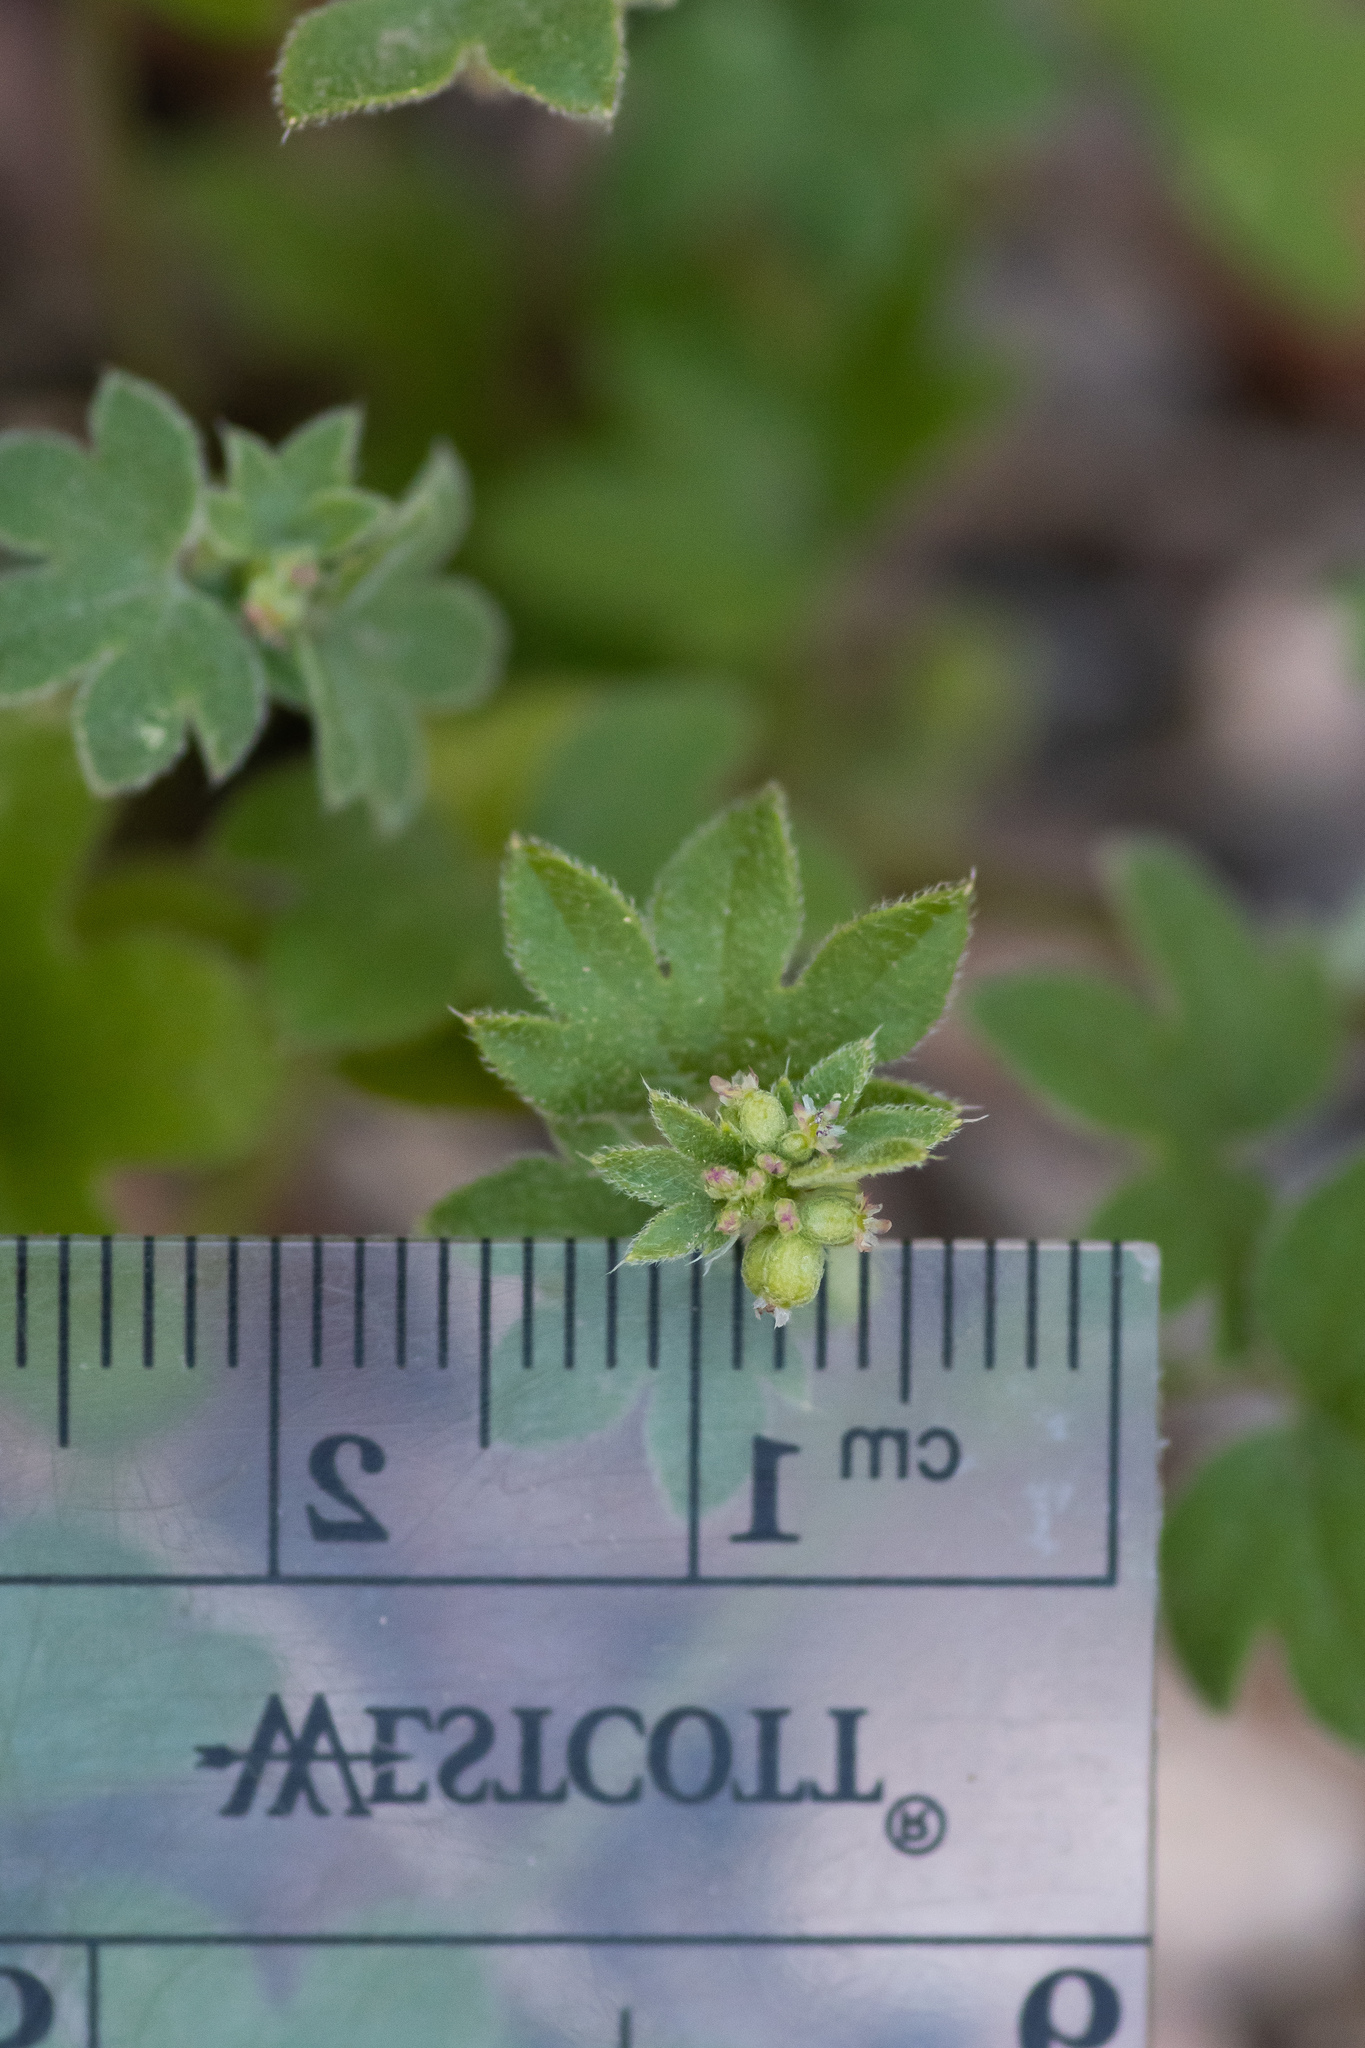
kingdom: Plantae
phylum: Tracheophyta
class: Magnoliopsida
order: Apiales
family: Apiaceae
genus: Bowlesia
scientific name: Bowlesia incana
